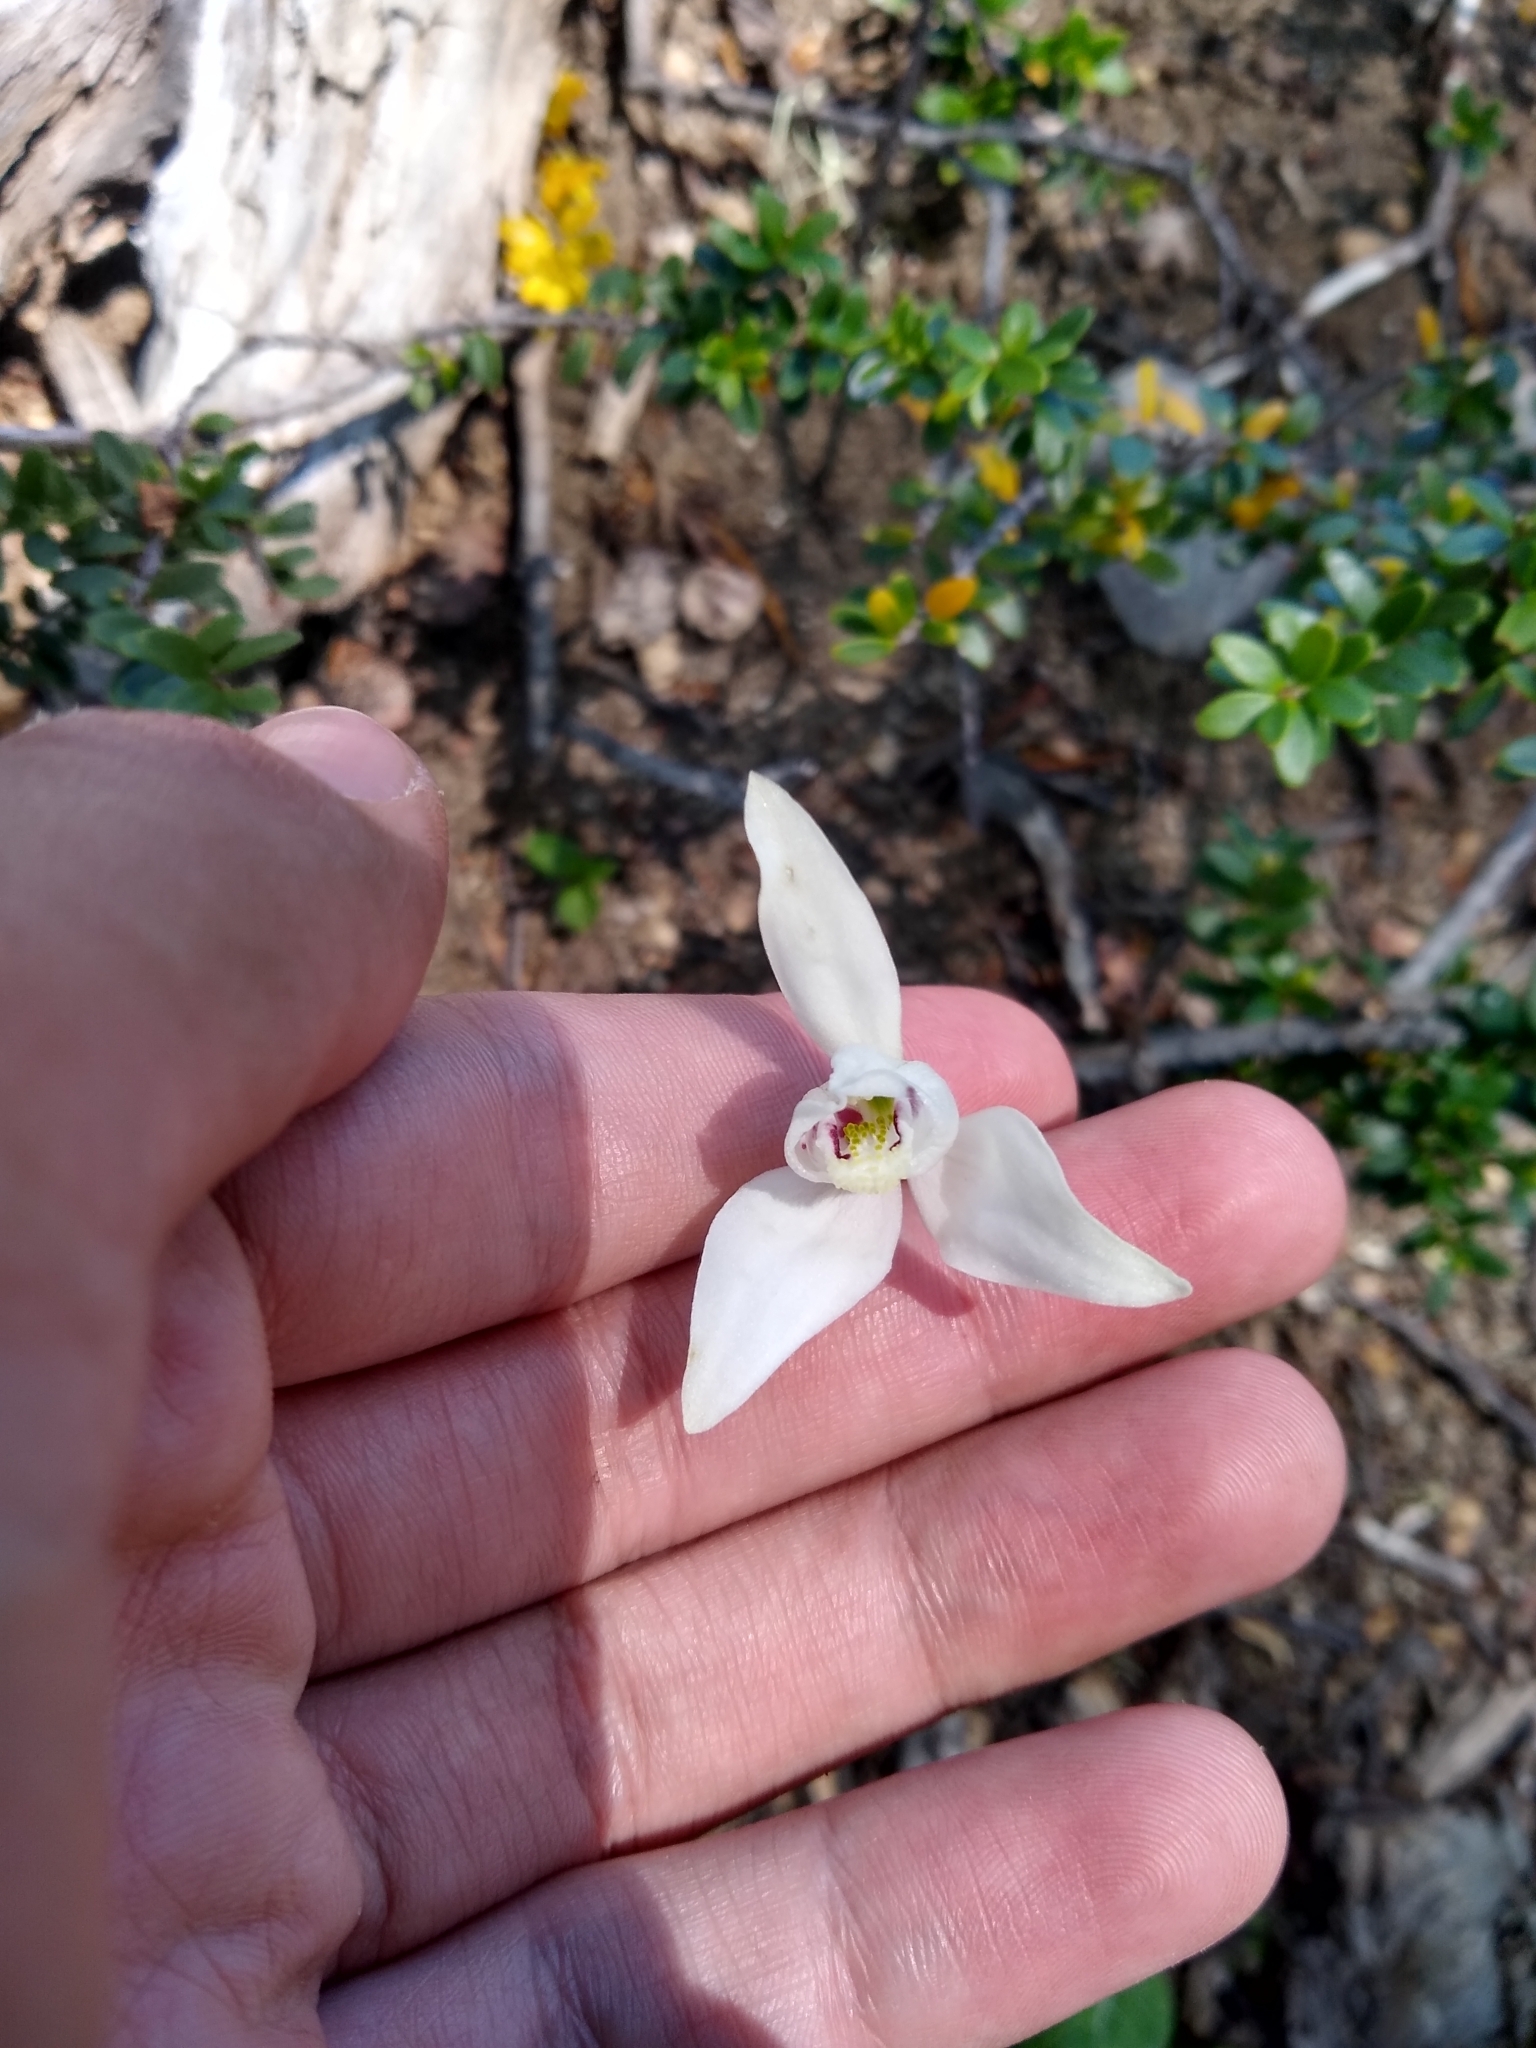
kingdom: Plantae
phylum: Tracheophyta
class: Liliopsida
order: Asparagales
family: Orchidaceae
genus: Codonorchis
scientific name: Codonorchis lessonii
